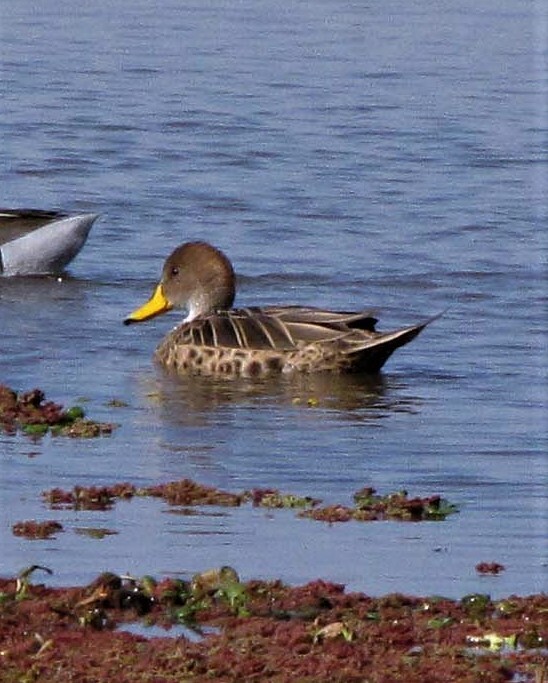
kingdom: Animalia
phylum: Chordata
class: Aves
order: Anseriformes
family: Anatidae
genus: Anas
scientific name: Anas georgica
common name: Yellow-billed pintail
